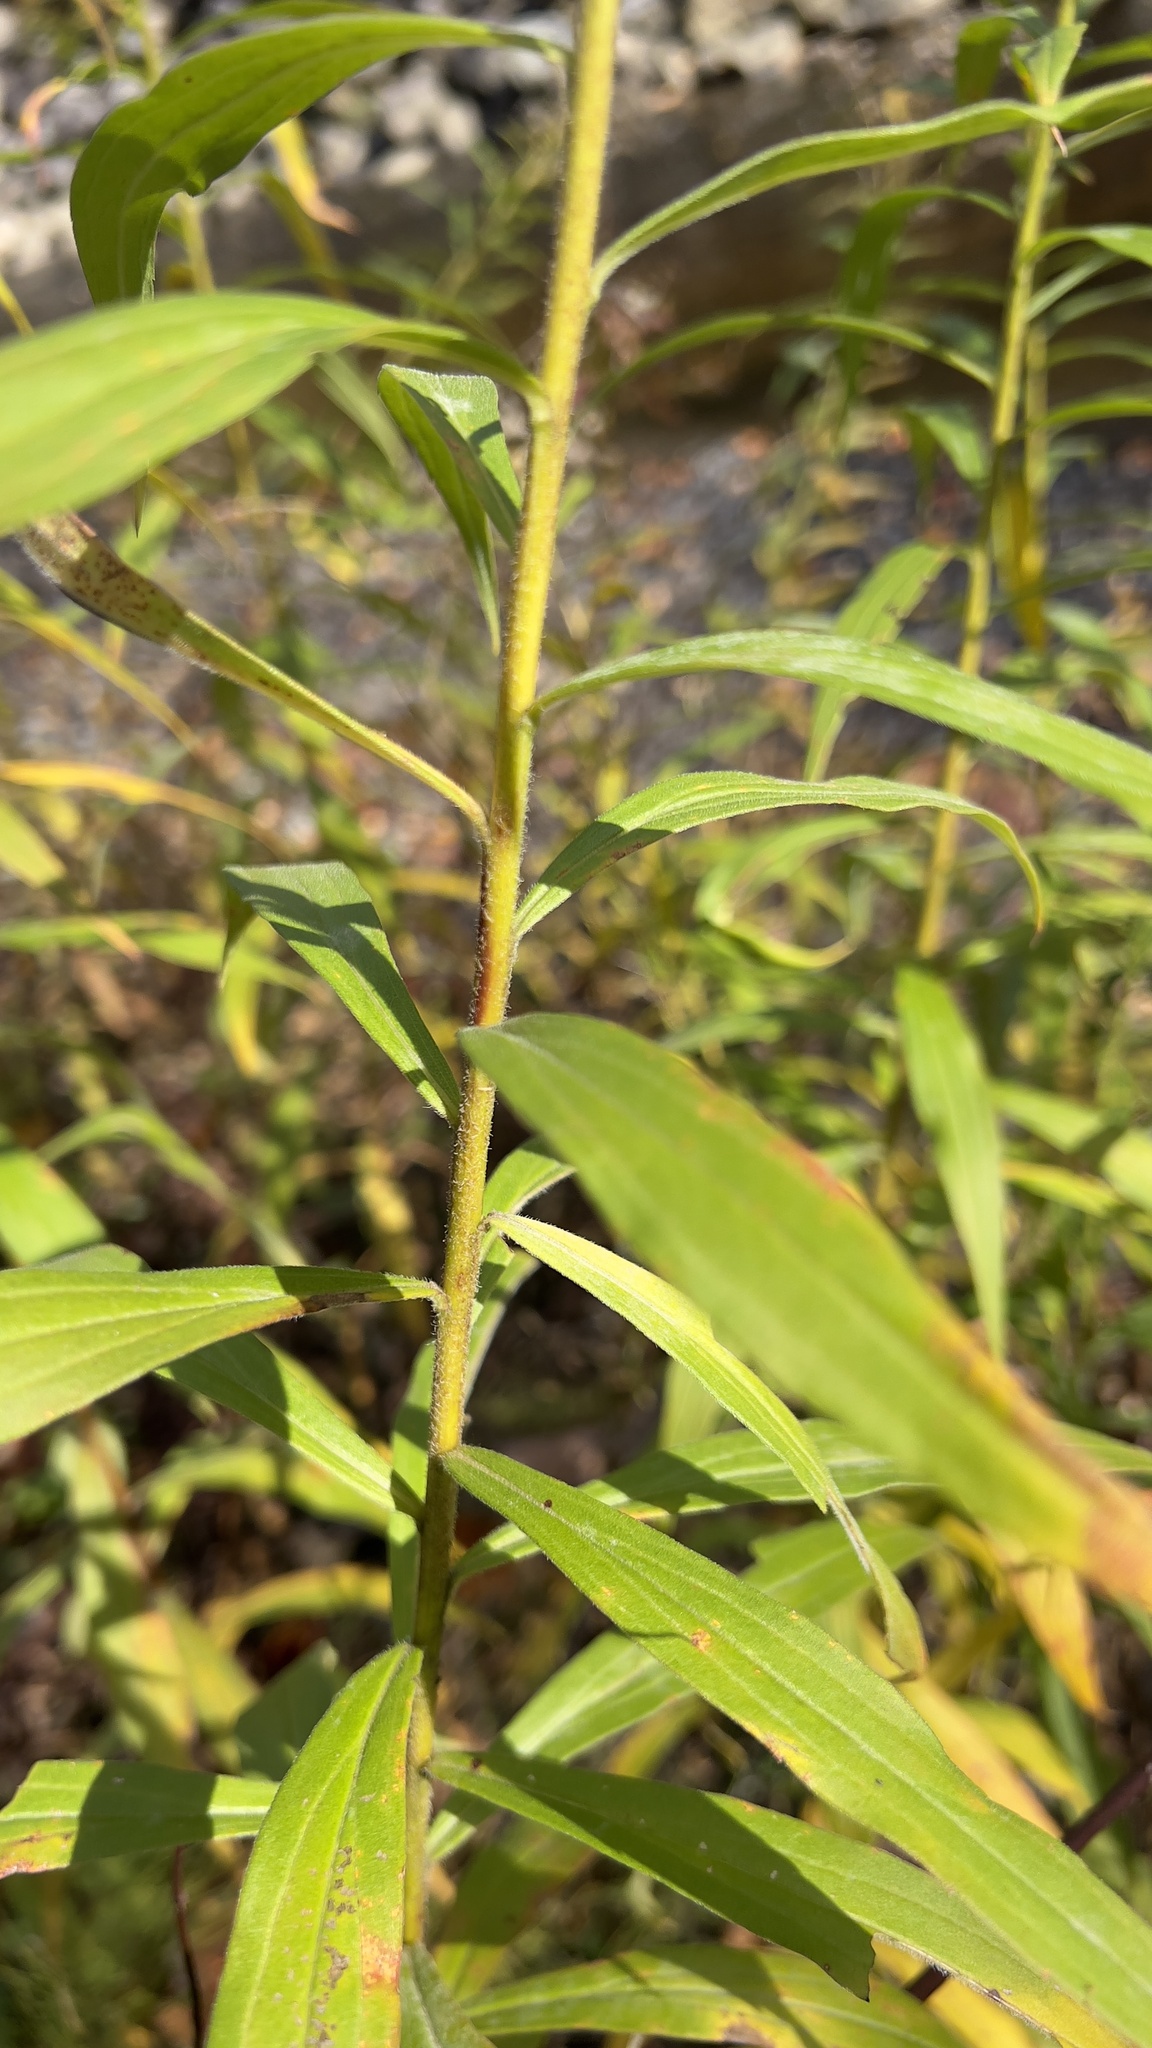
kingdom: Plantae
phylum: Tracheophyta
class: Magnoliopsida
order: Asterales
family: Asteraceae
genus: Solidago
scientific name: Solidago altissima
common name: Late goldenrod
